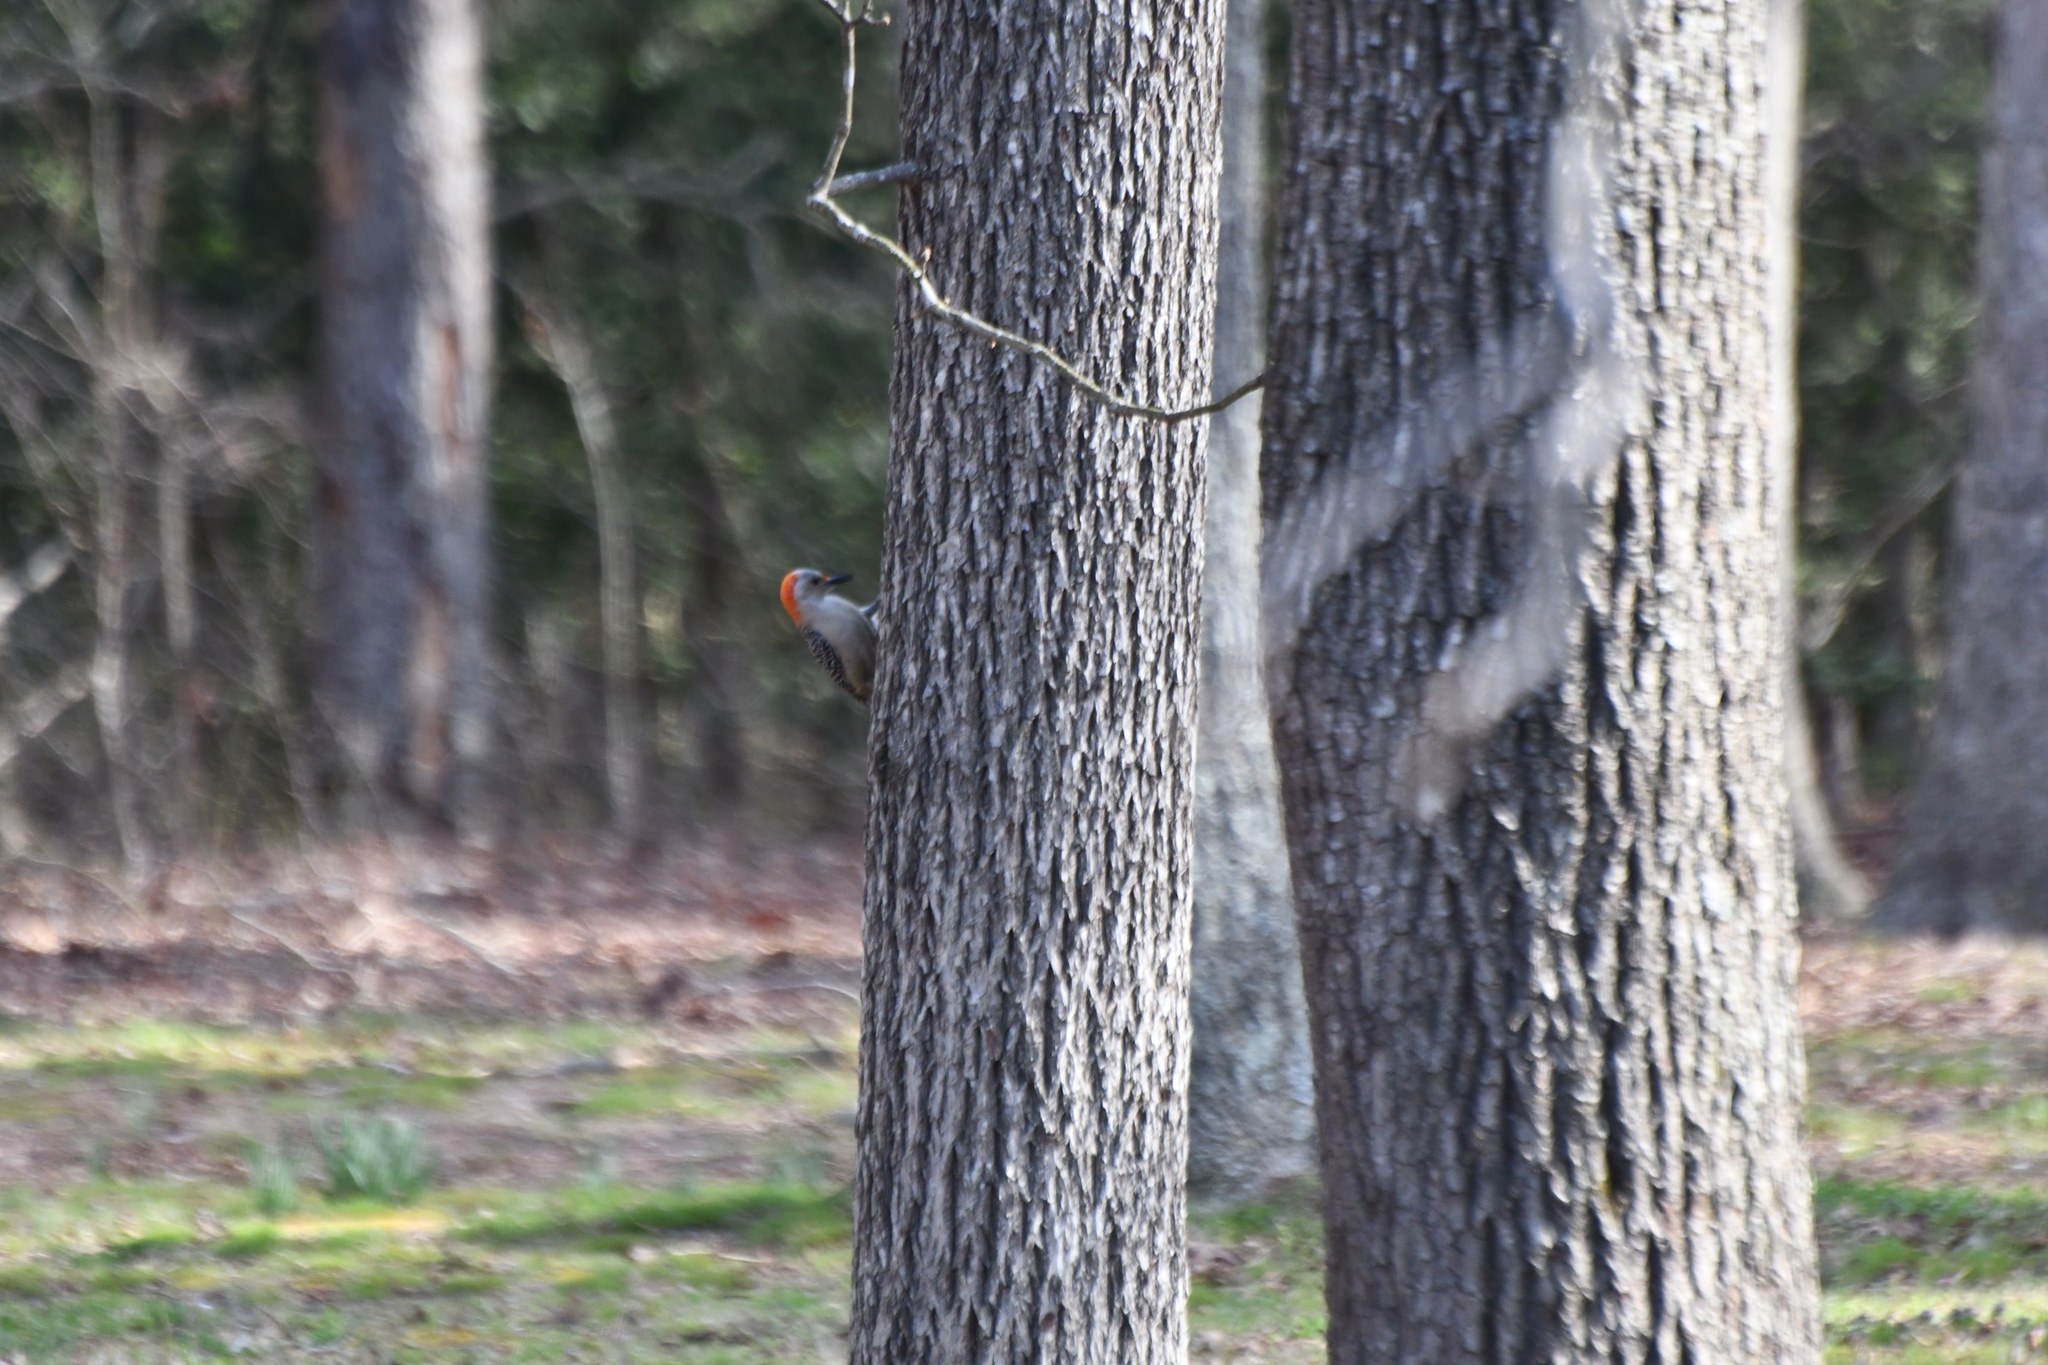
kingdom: Animalia
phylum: Chordata
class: Aves
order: Piciformes
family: Picidae
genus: Melanerpes
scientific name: Melanerpes carolinus
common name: Red-bellied woodpecker
